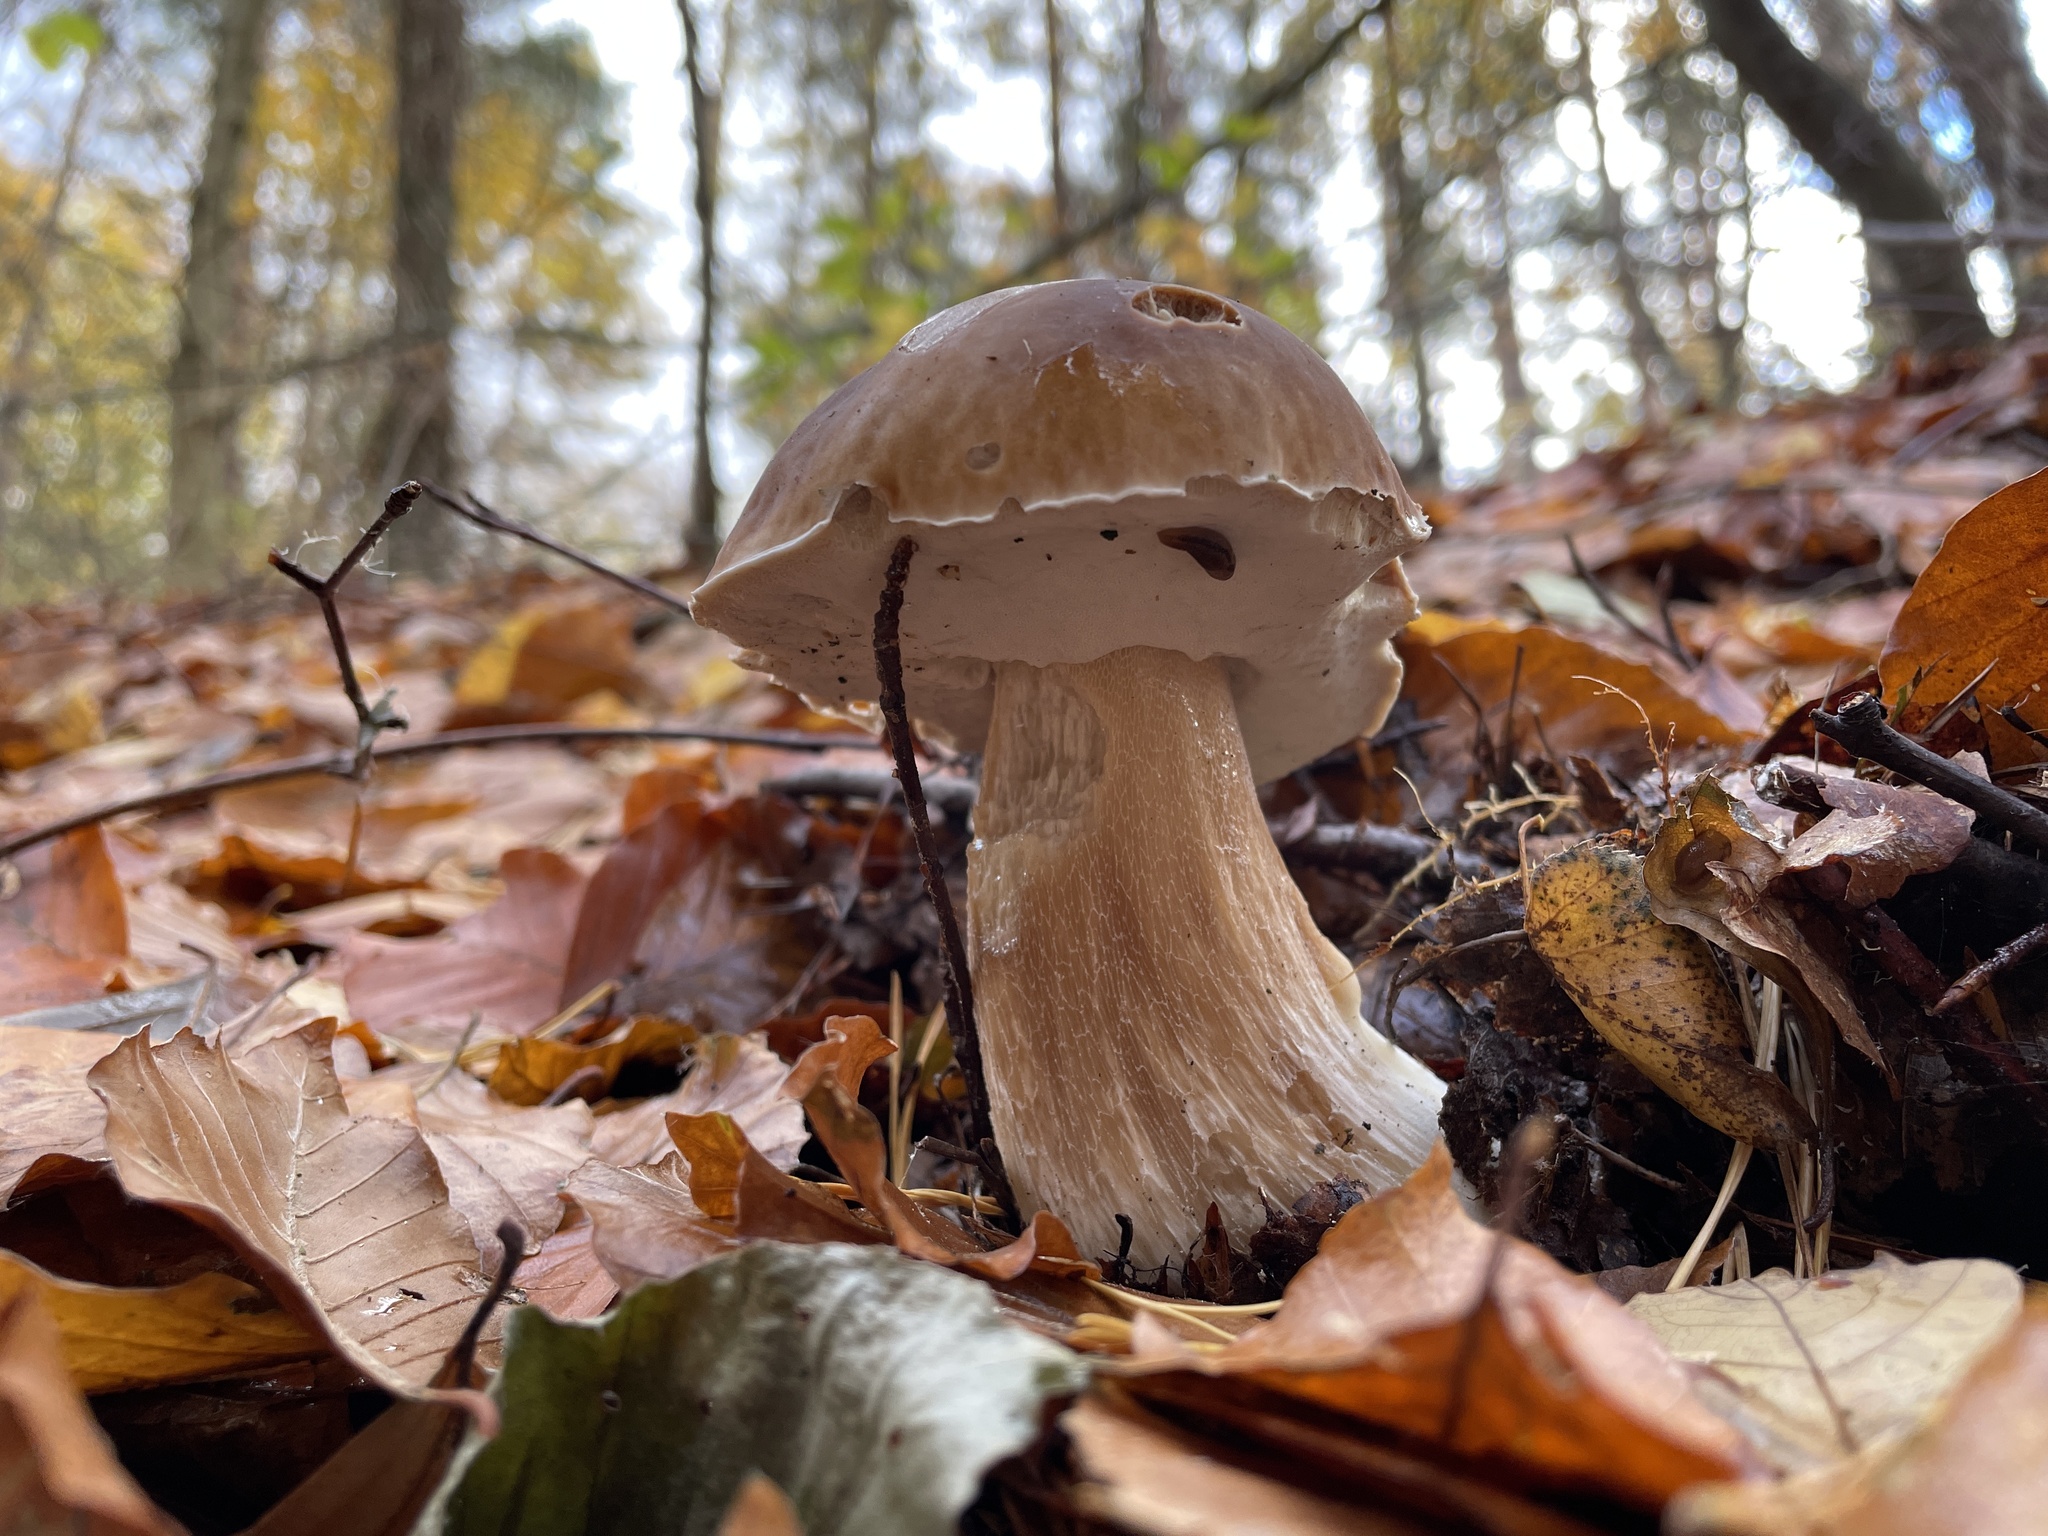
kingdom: Fungi
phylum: Basidiomycota
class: Agaricomycetes
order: Boletales
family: Boletaceae
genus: Boletus
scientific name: Boletus edulis
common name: Cep
